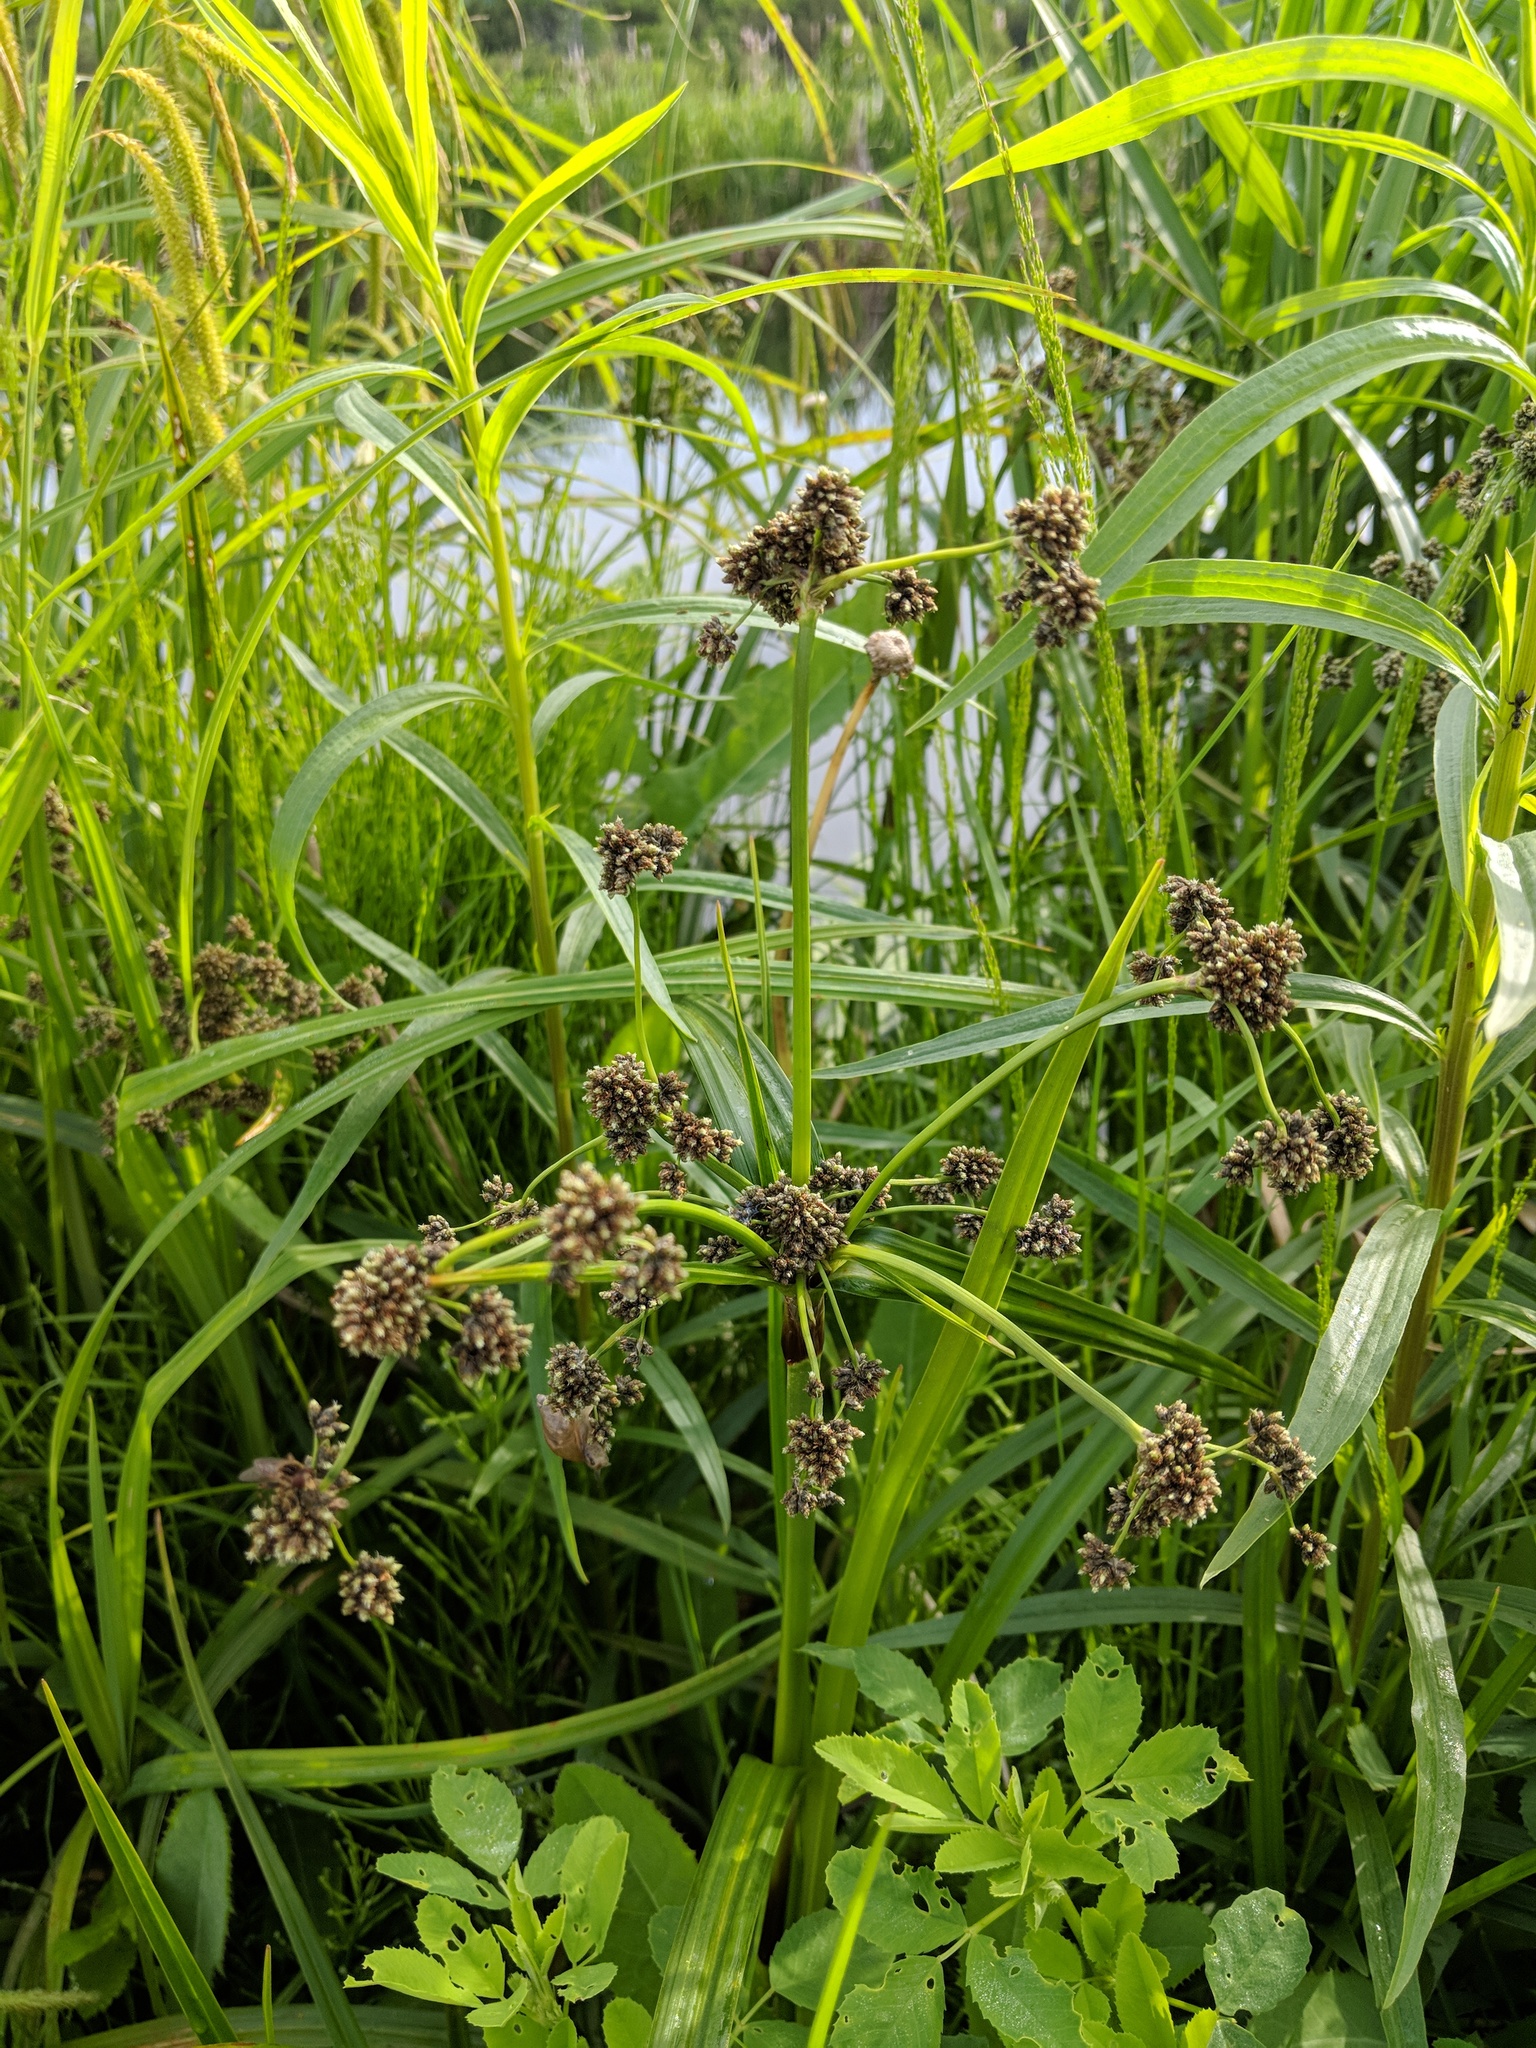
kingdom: Plantae
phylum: Tracheophyta
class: Liliopsida
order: Poales
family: Cyperaceae
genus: Scirpus
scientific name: Scirpus atrovirens
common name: Black bulrush
